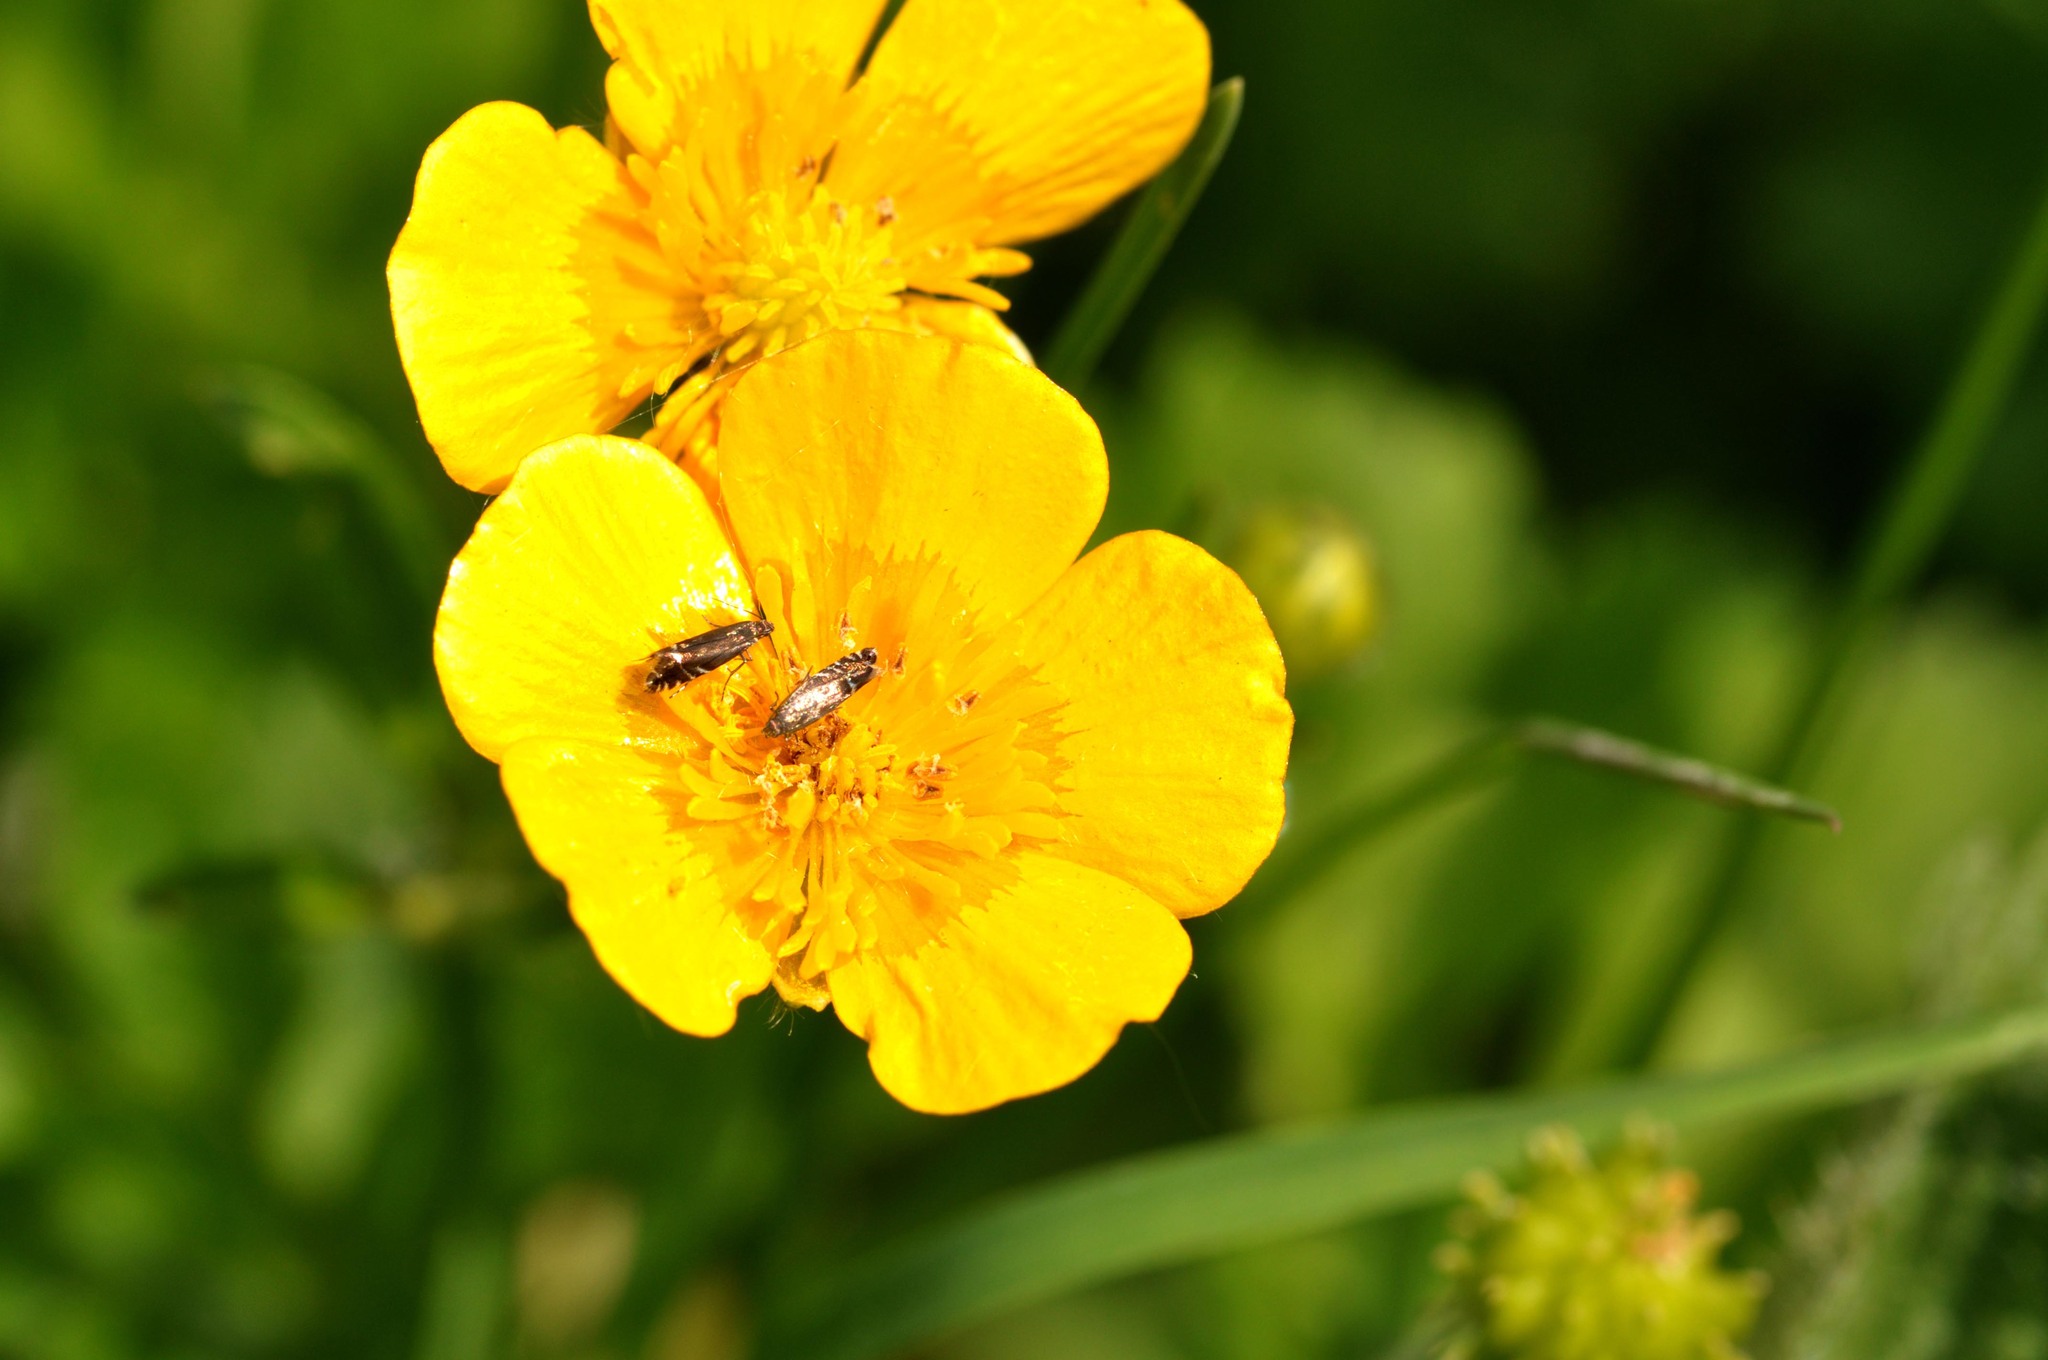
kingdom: Animalia
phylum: Arthropoda
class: Insecta
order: Lepidoptera
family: Glyphipterigidae
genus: Glyphipterix
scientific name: Glyphipterix simpliciella
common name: Cocksfoot moth
